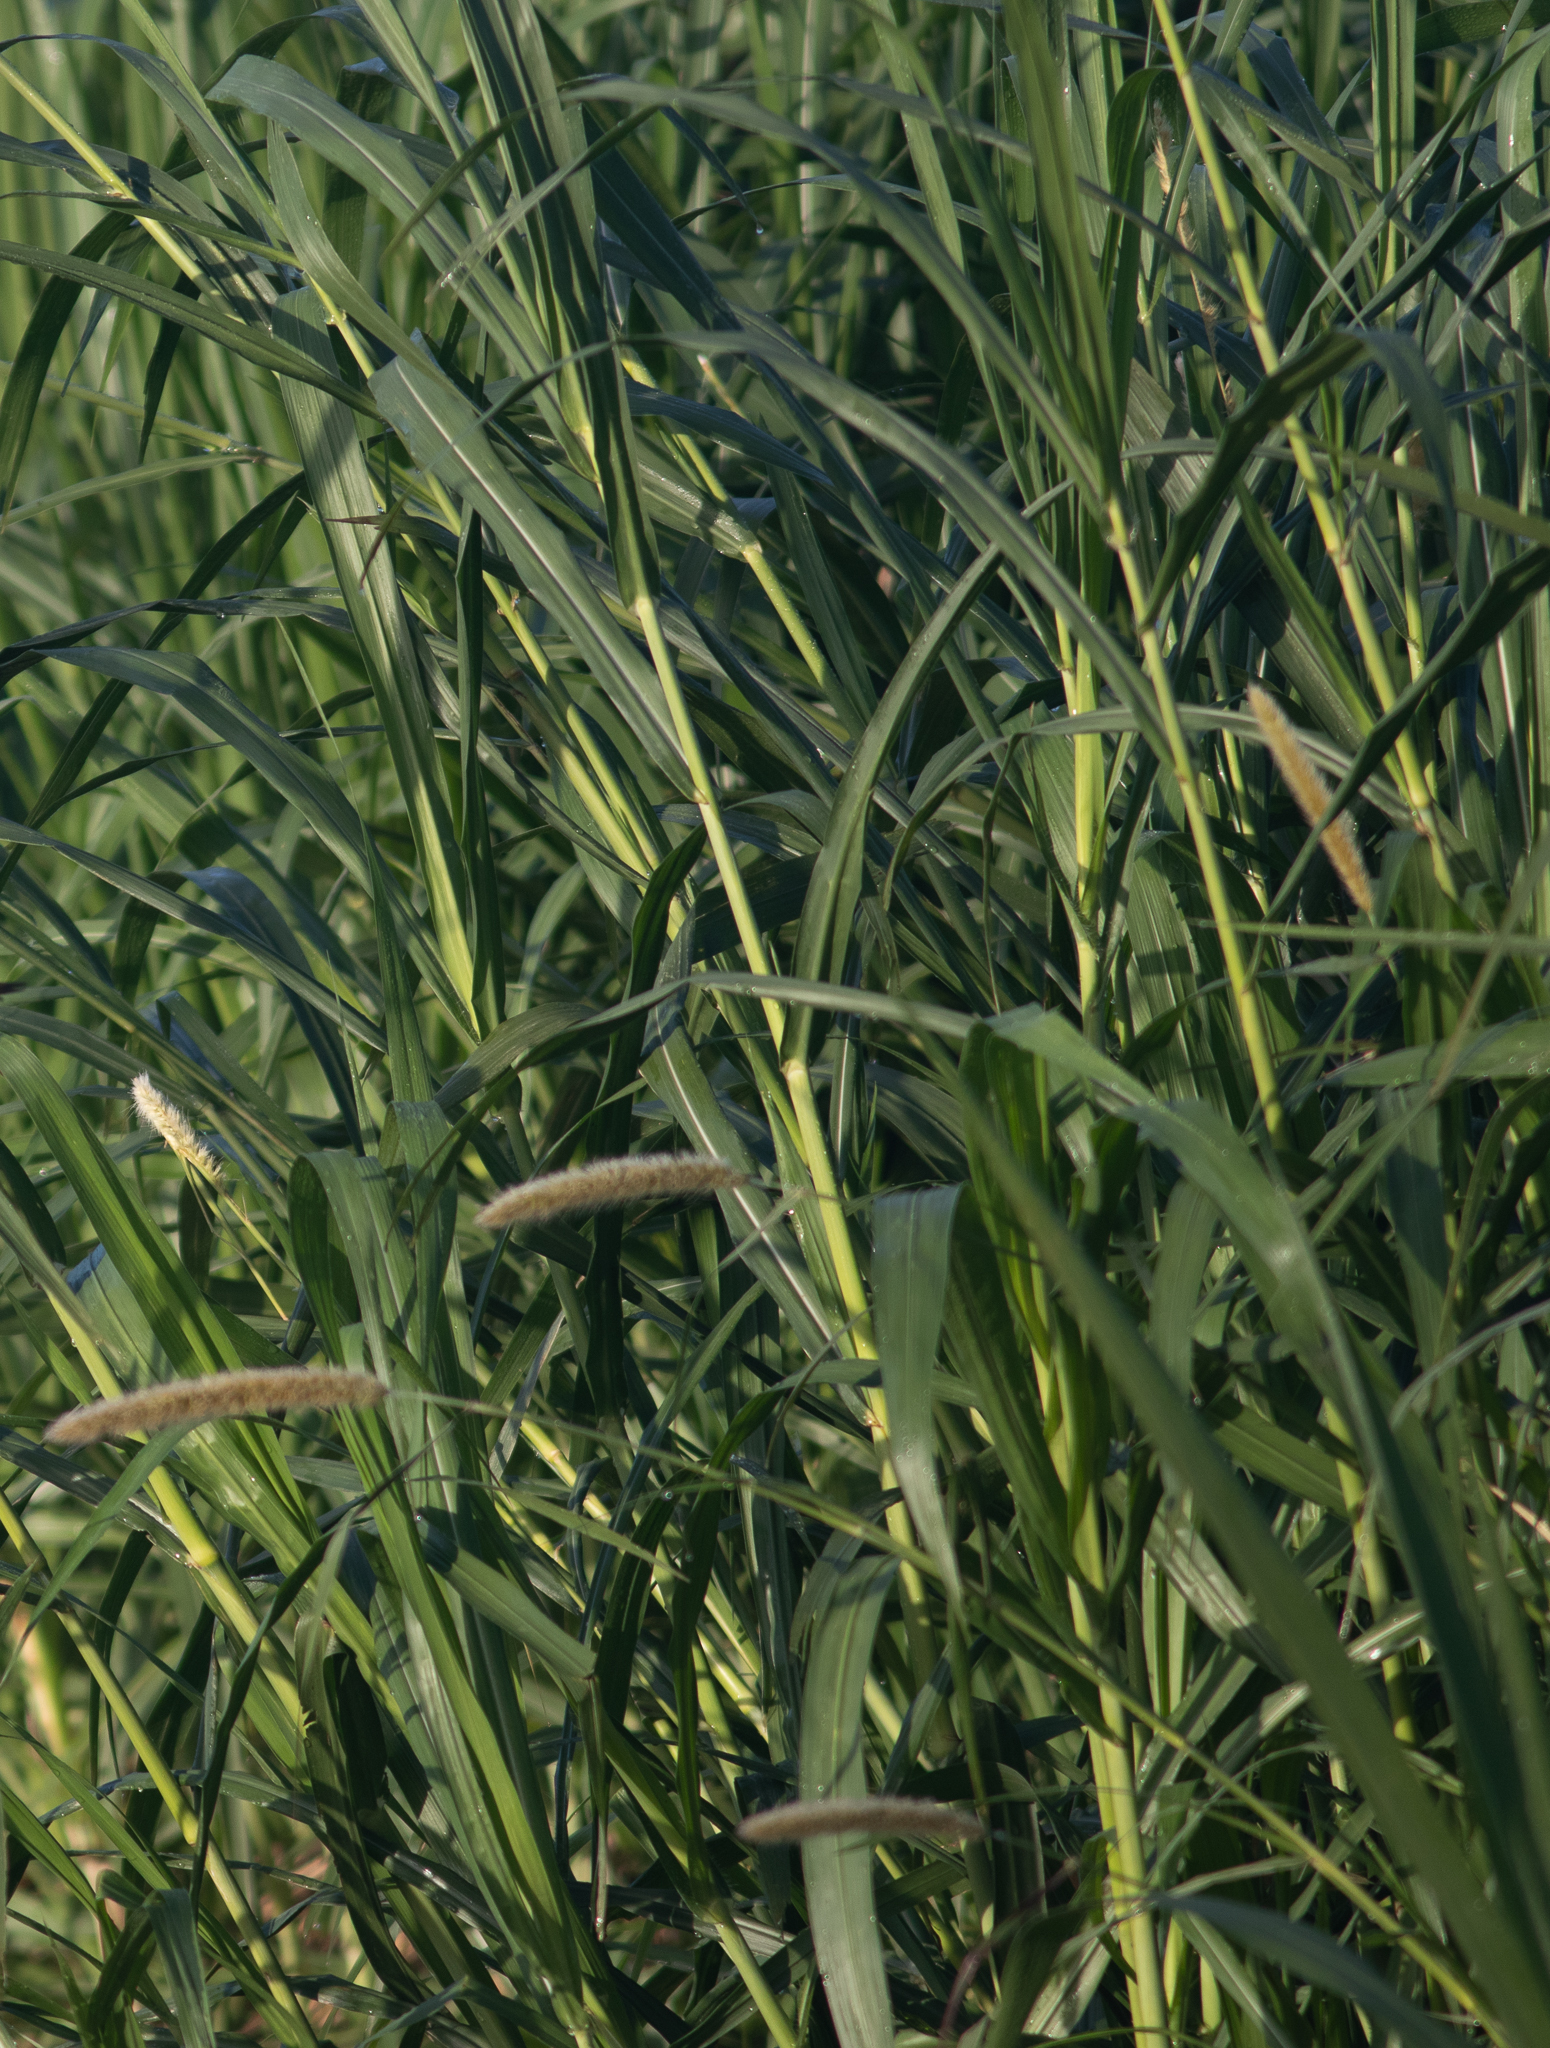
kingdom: Plantae
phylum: Tracheophyta
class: Liliopsida
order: Poales
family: Poaceae
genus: Cenchrus
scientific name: Cenchrus purpureus
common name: Elephant grass
